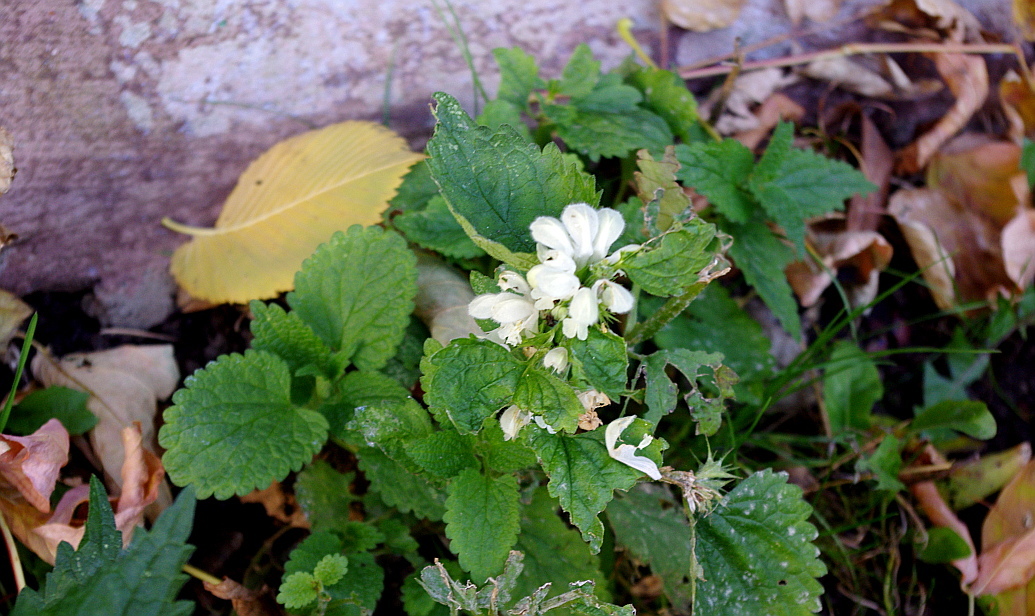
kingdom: Plantae
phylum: Tracheophyta
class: Magnoliopsida
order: Lamiales
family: Lamiaceae
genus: Lamium
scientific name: Lamium album
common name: White dead-nettle
